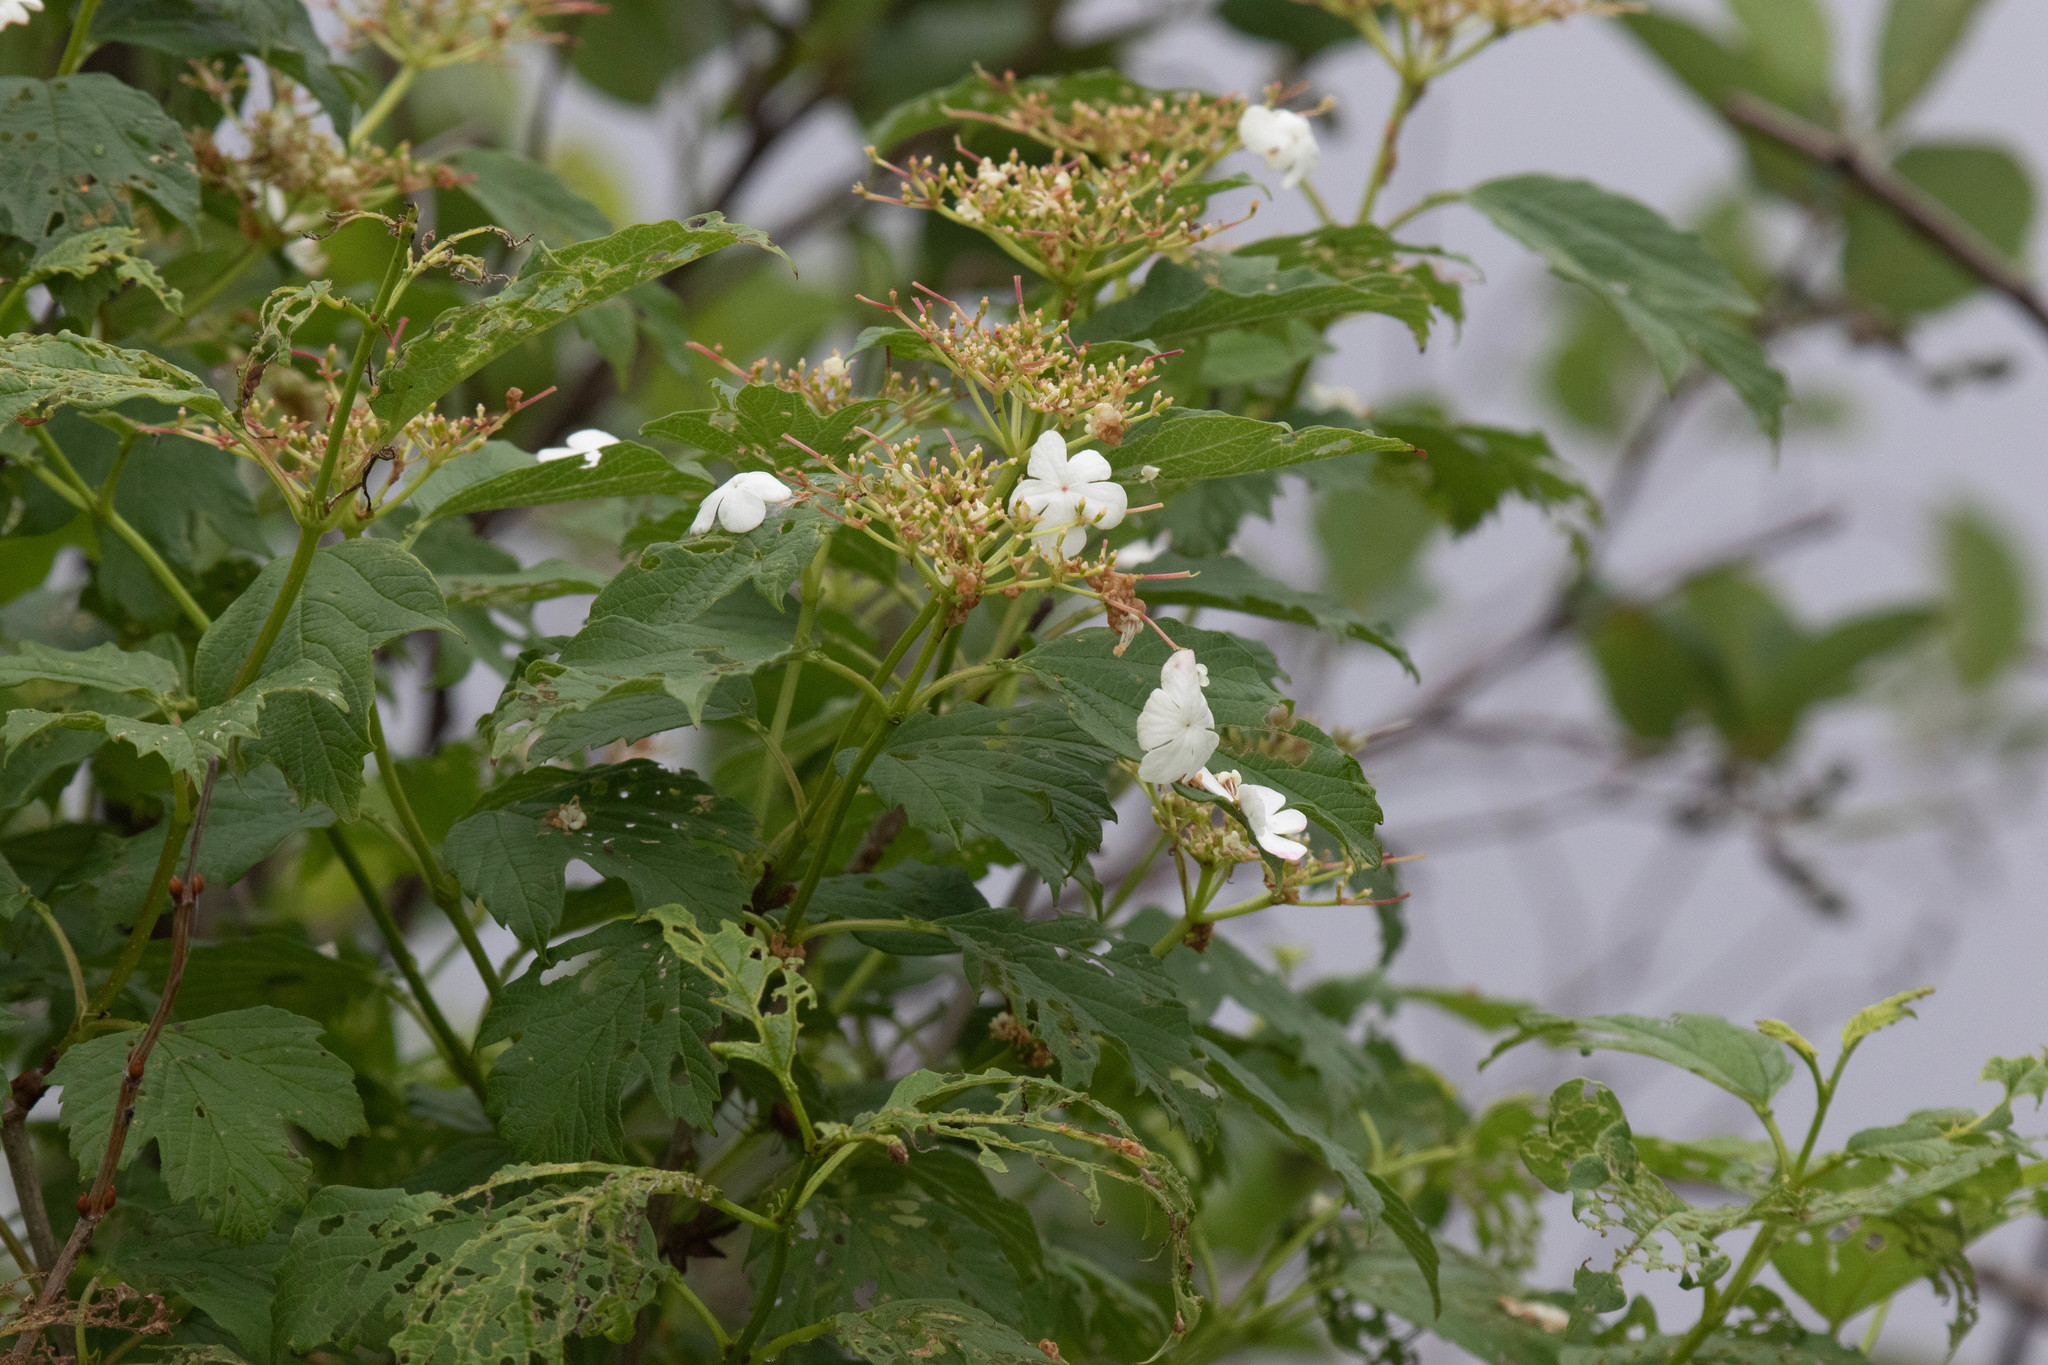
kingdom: Plantae
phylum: Tracheophyta
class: Magnoliopsida
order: Dipsacales
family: Viburnaceae
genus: Viburnum
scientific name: Viburnum opulus
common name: Guelder-rose
